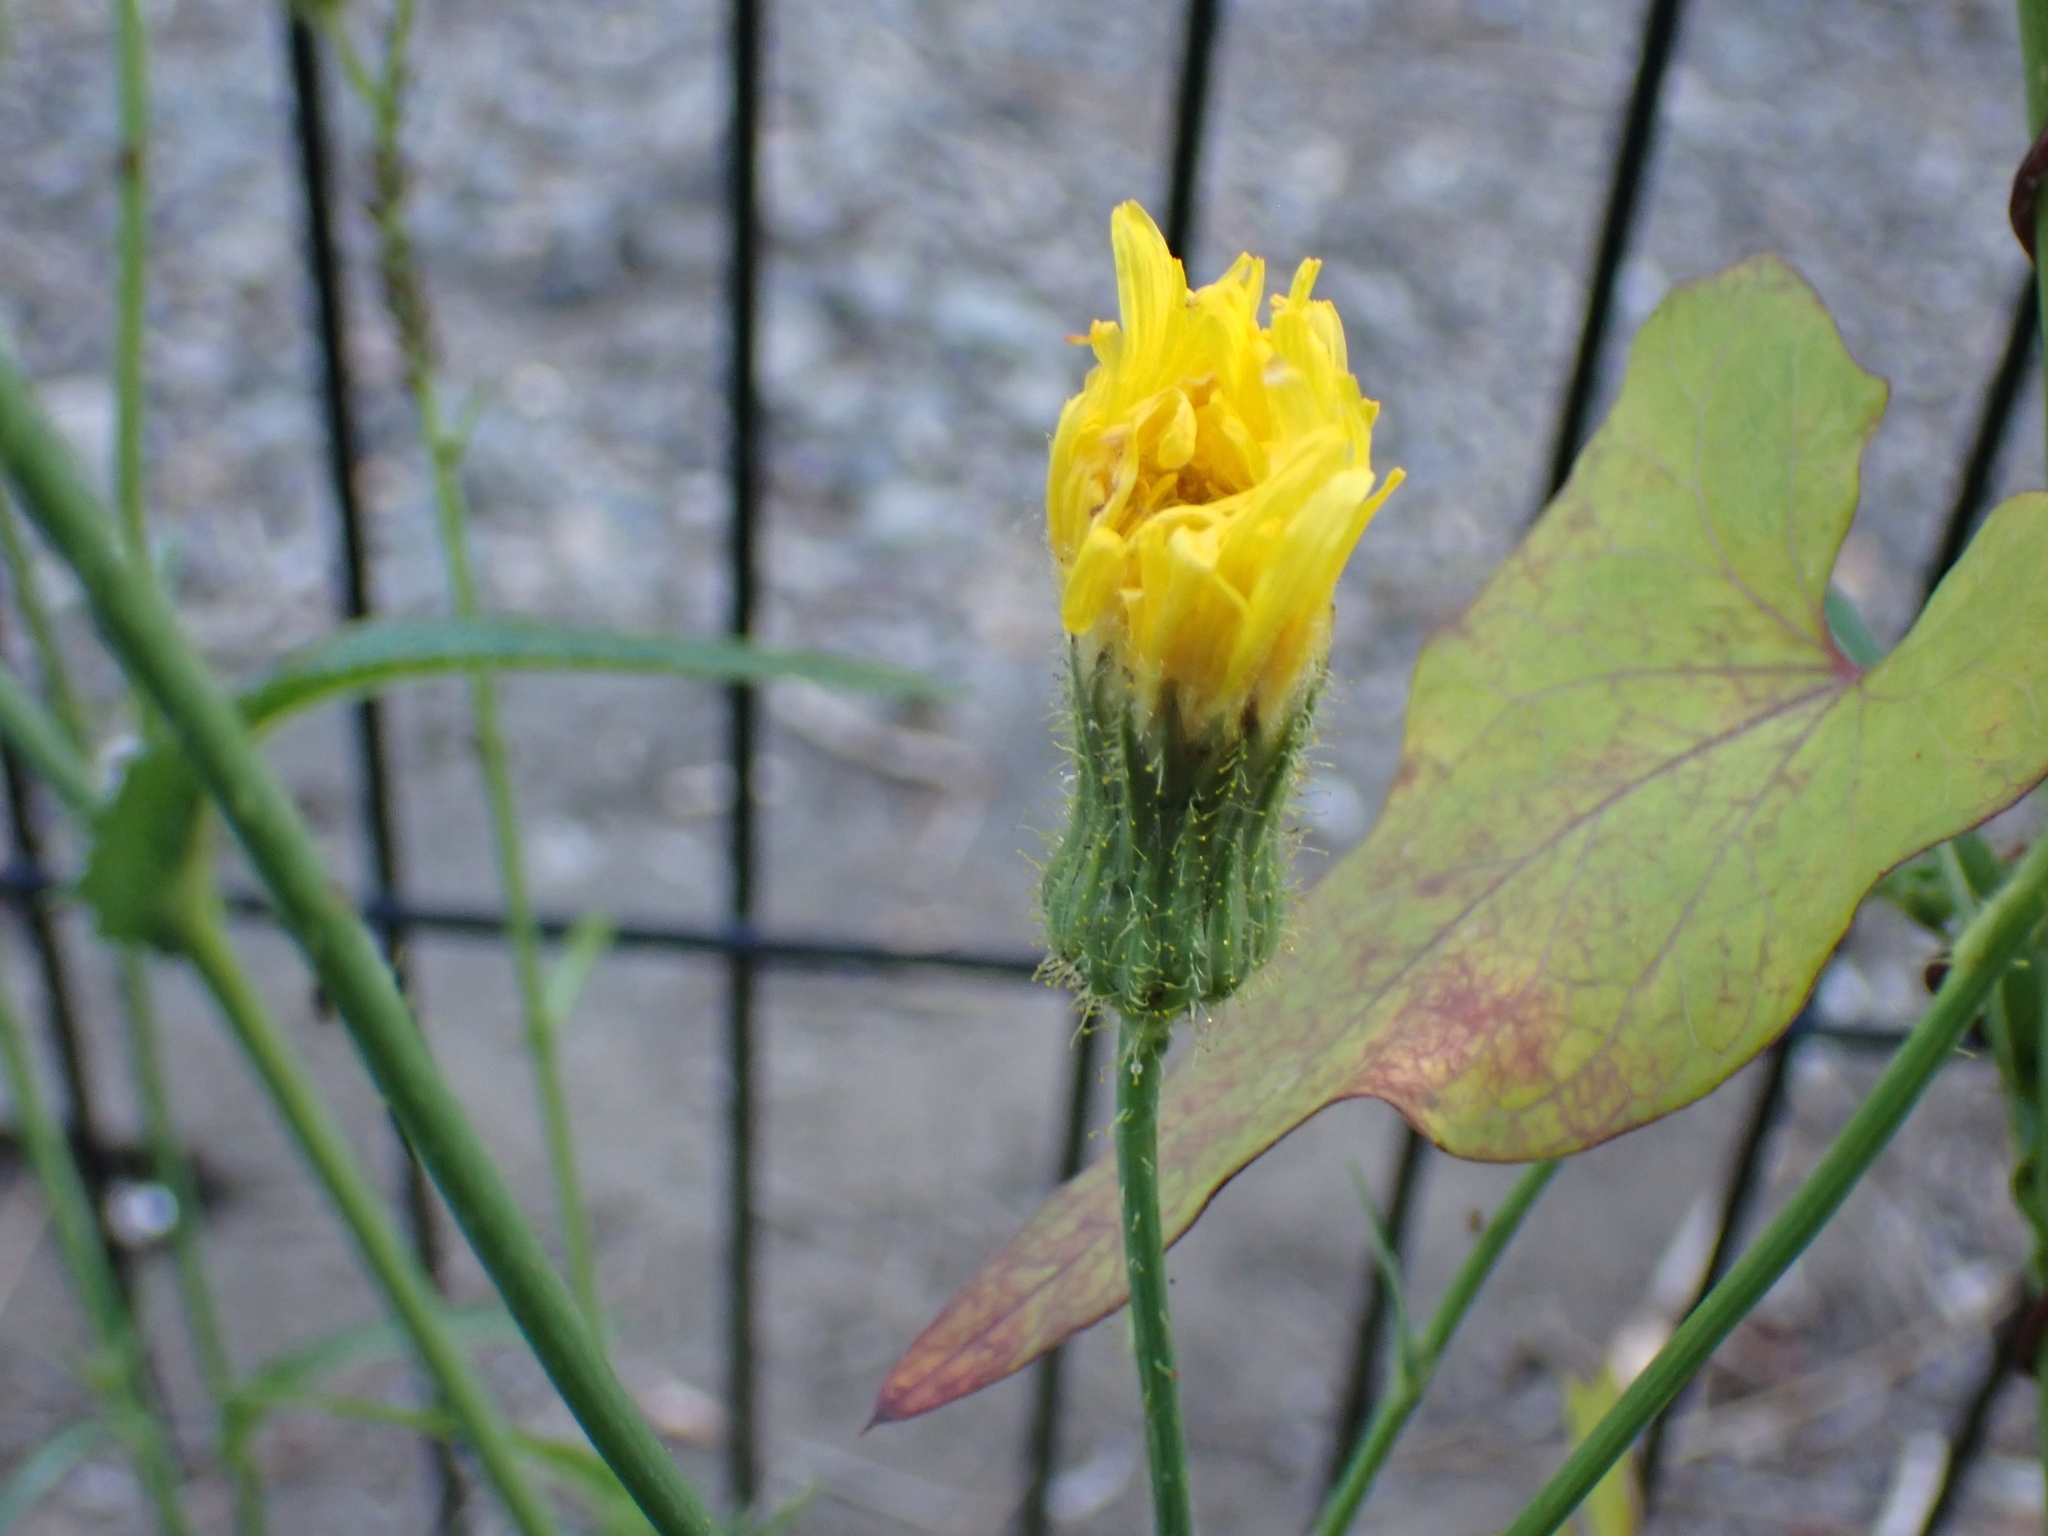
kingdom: Plantae
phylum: Tracheophyta
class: Magnoliopsida
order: Asterales
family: Asteraceae
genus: Sonchus
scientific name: Sonchus arvensis
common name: Perennial sow-thistle
